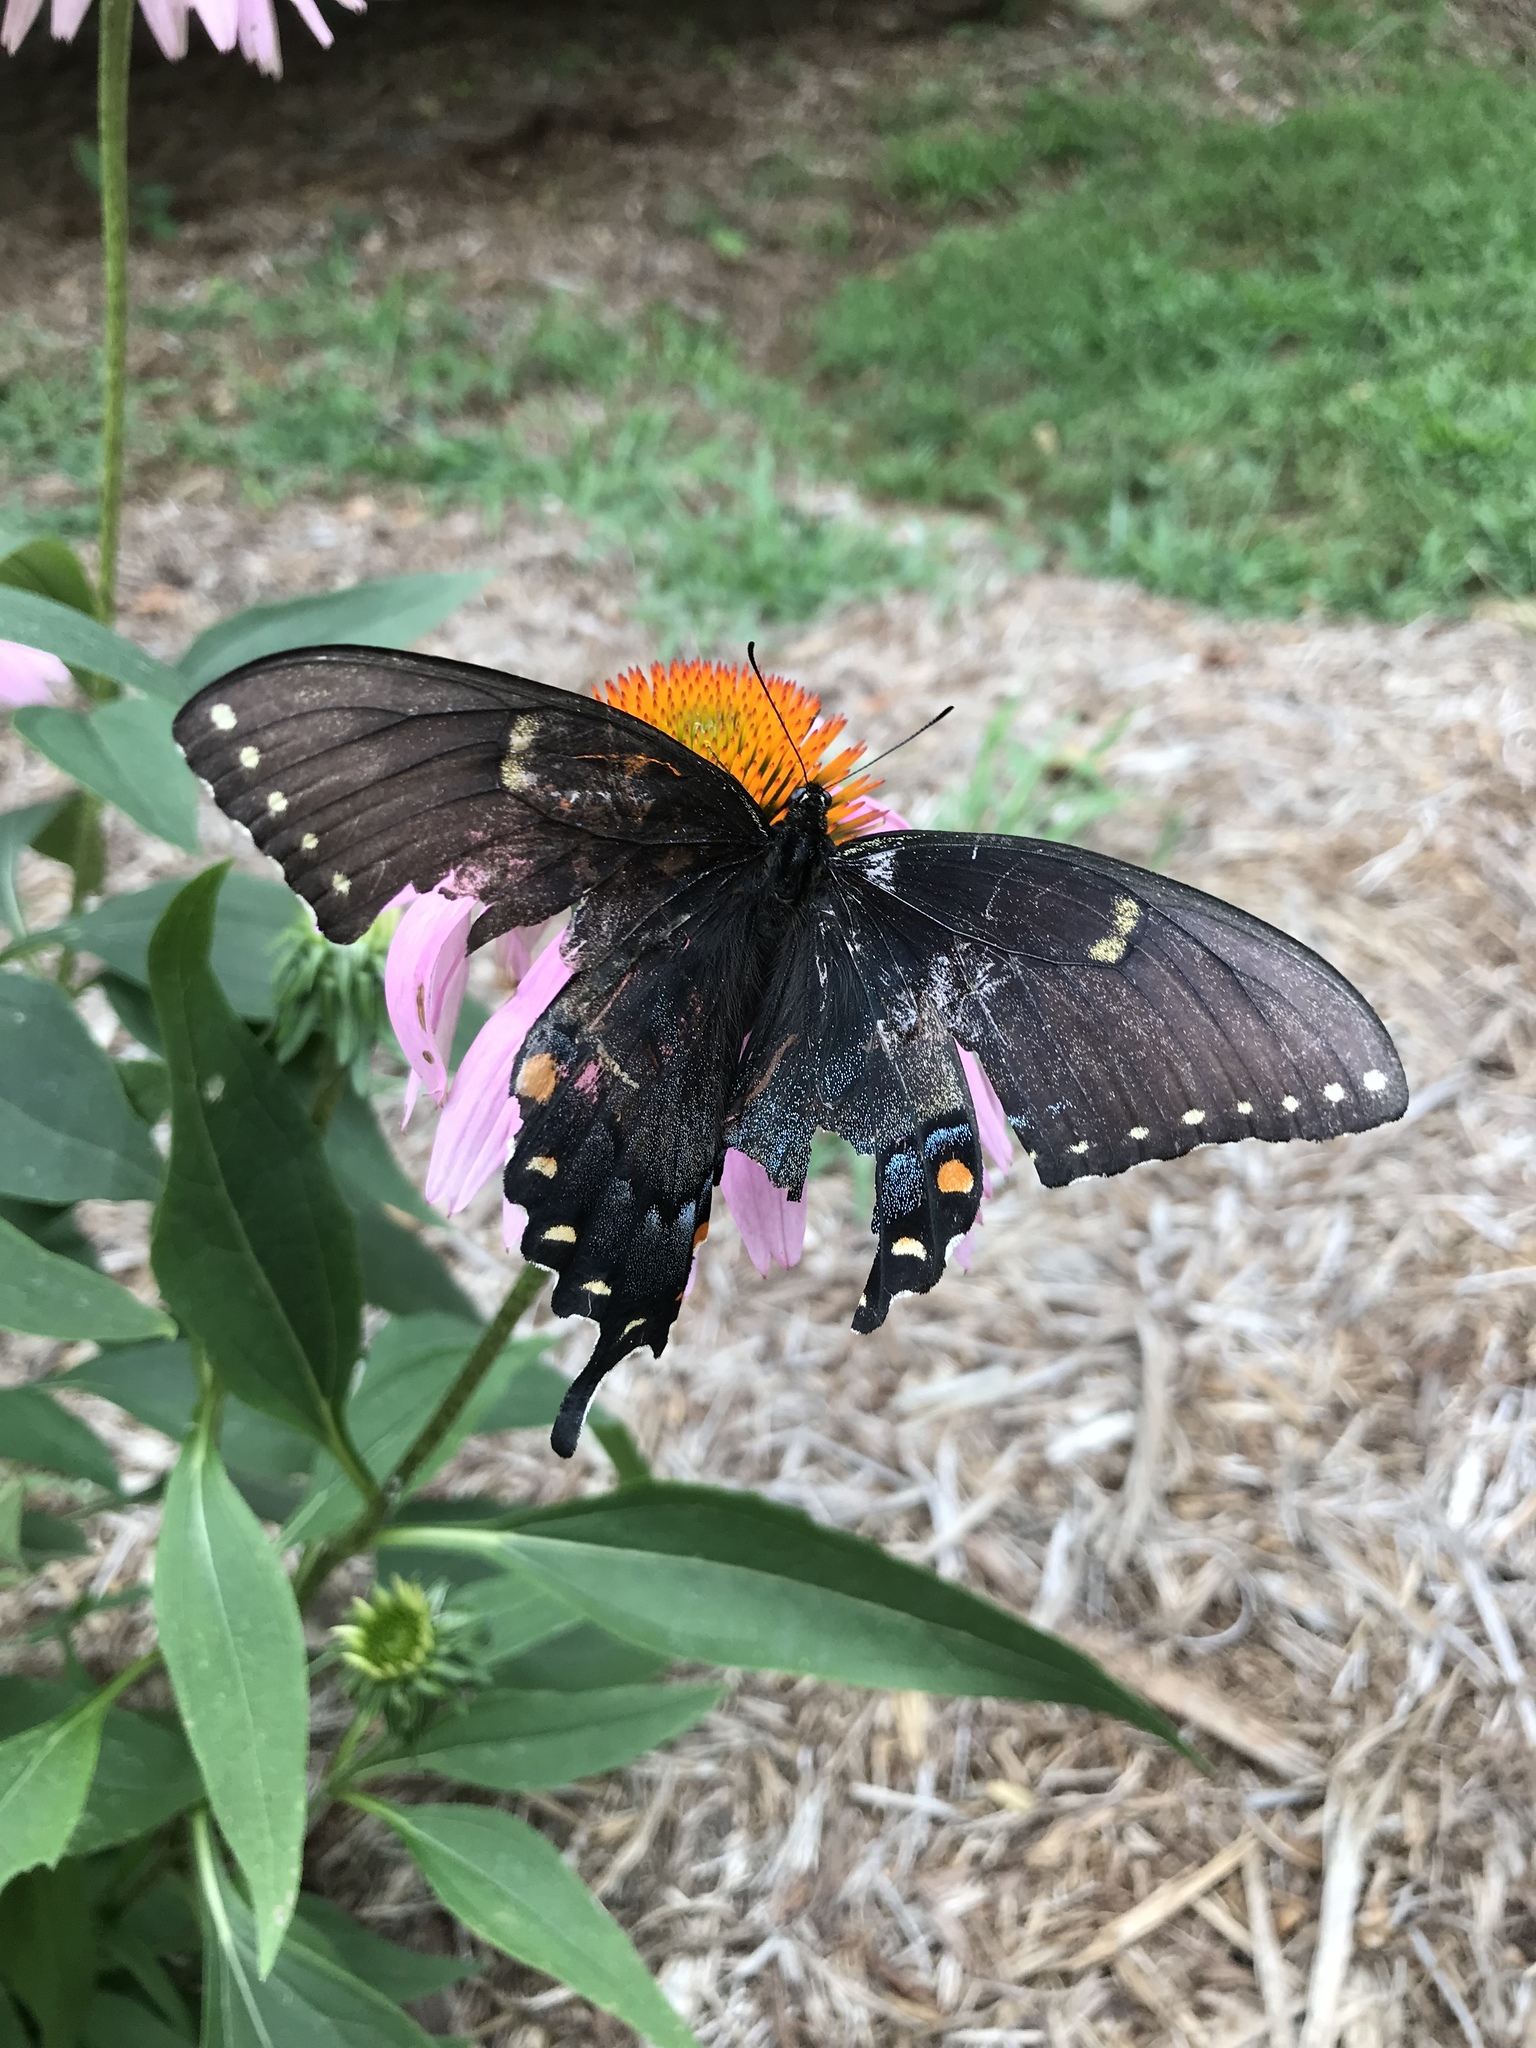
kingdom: Animalia
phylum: Arthropoda
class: Insecta
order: Lepidoptera
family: Papilionidae
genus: Papilio
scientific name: Papilio glaucus
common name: Tiger swallowtail
